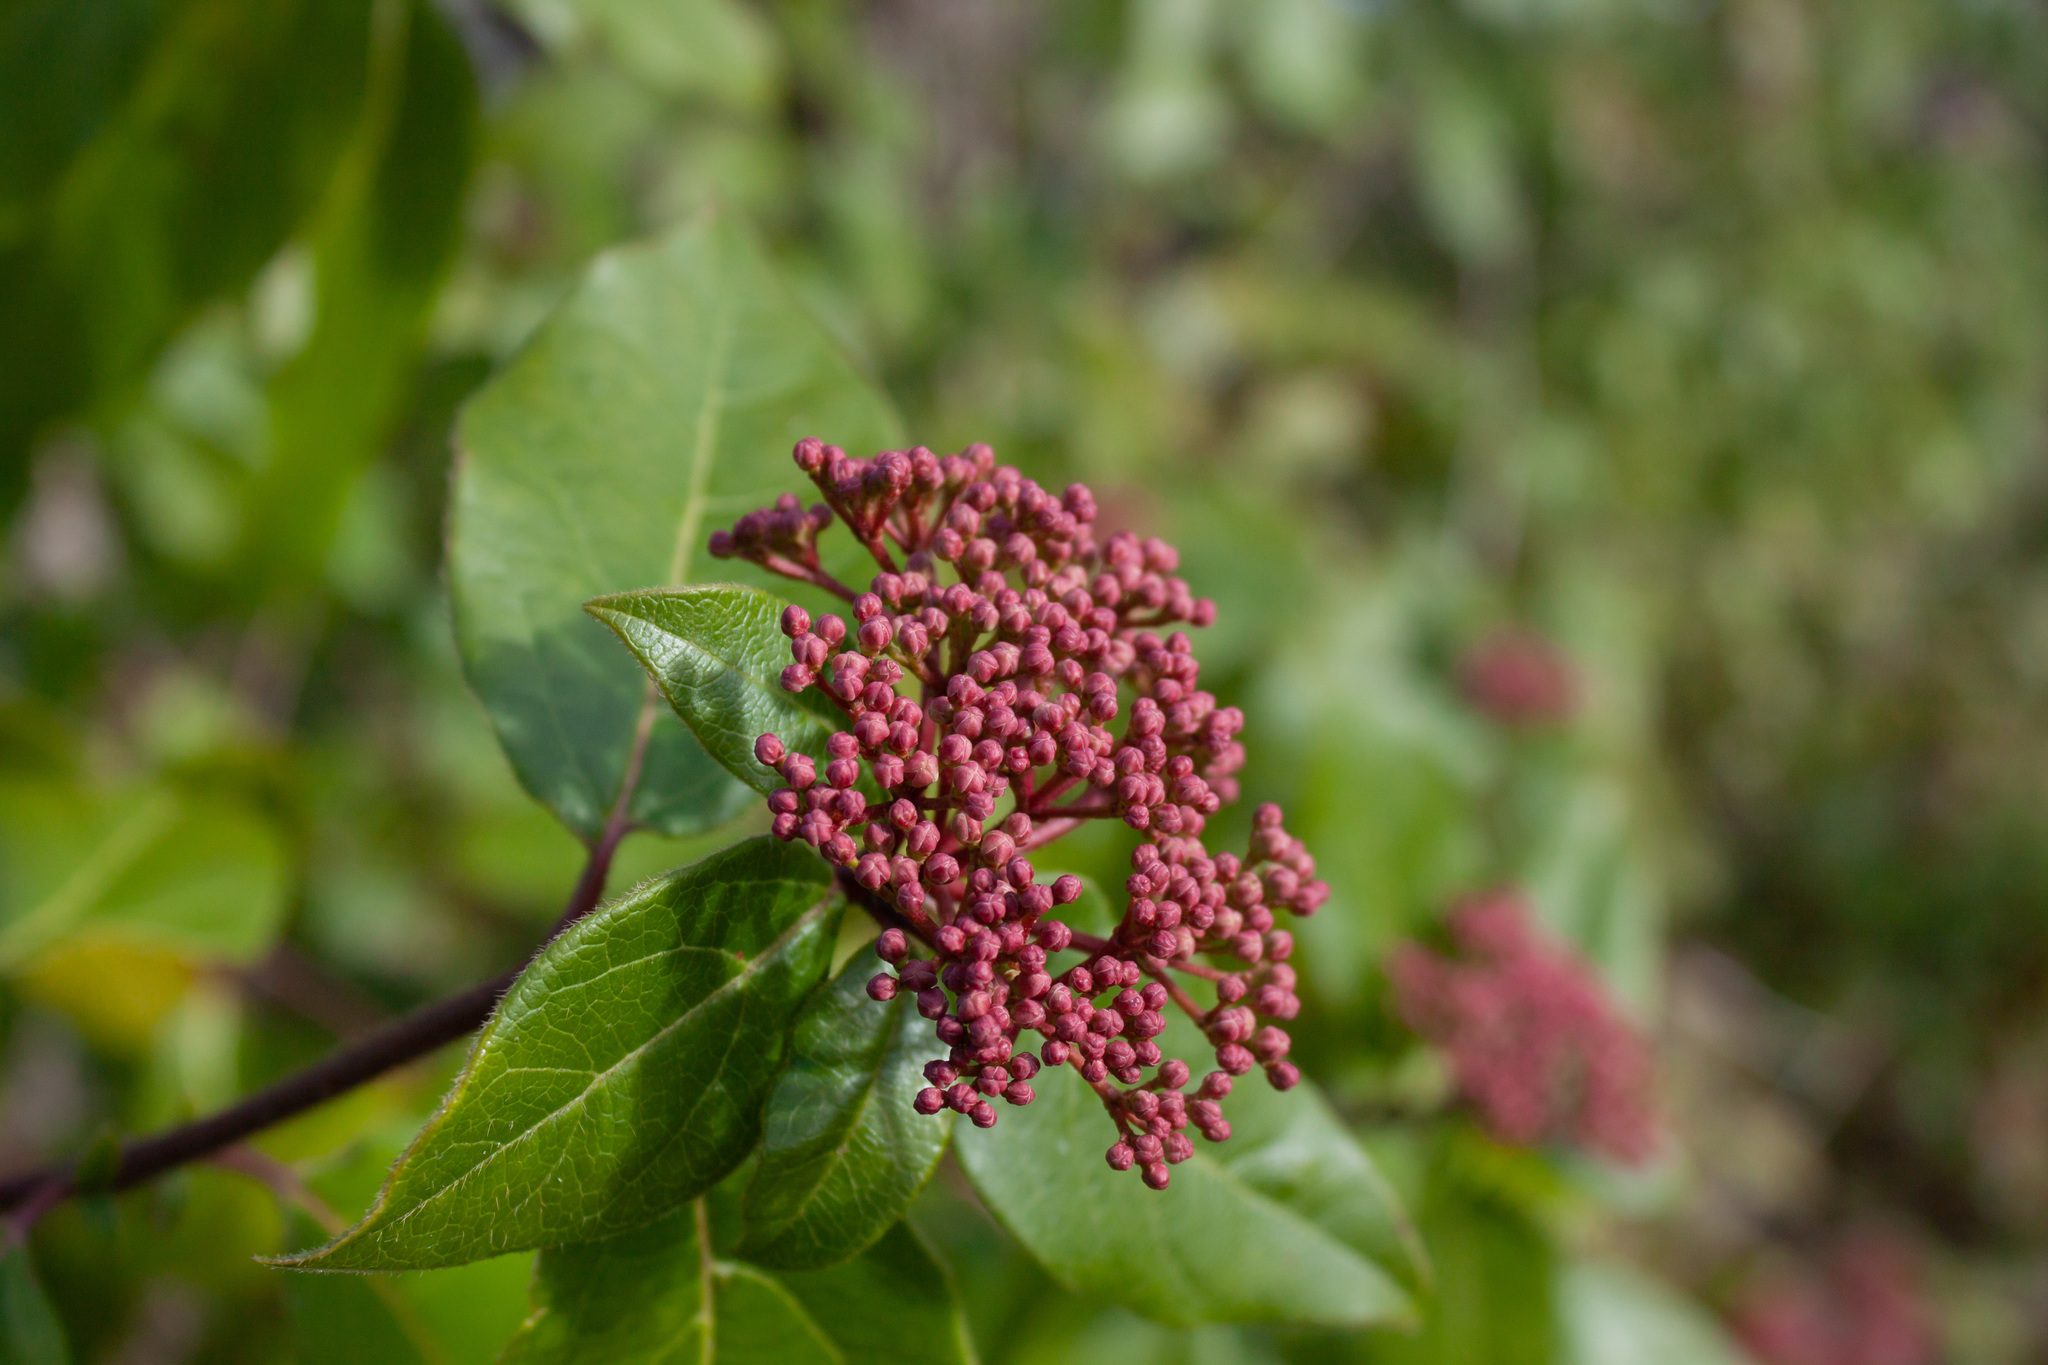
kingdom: Plantae
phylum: Tracheophyta
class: Magnoliopsida
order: Dipsacales
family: Viburnaceae
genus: Viburnum
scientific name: Viburnum tinus
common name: Laurustinus
